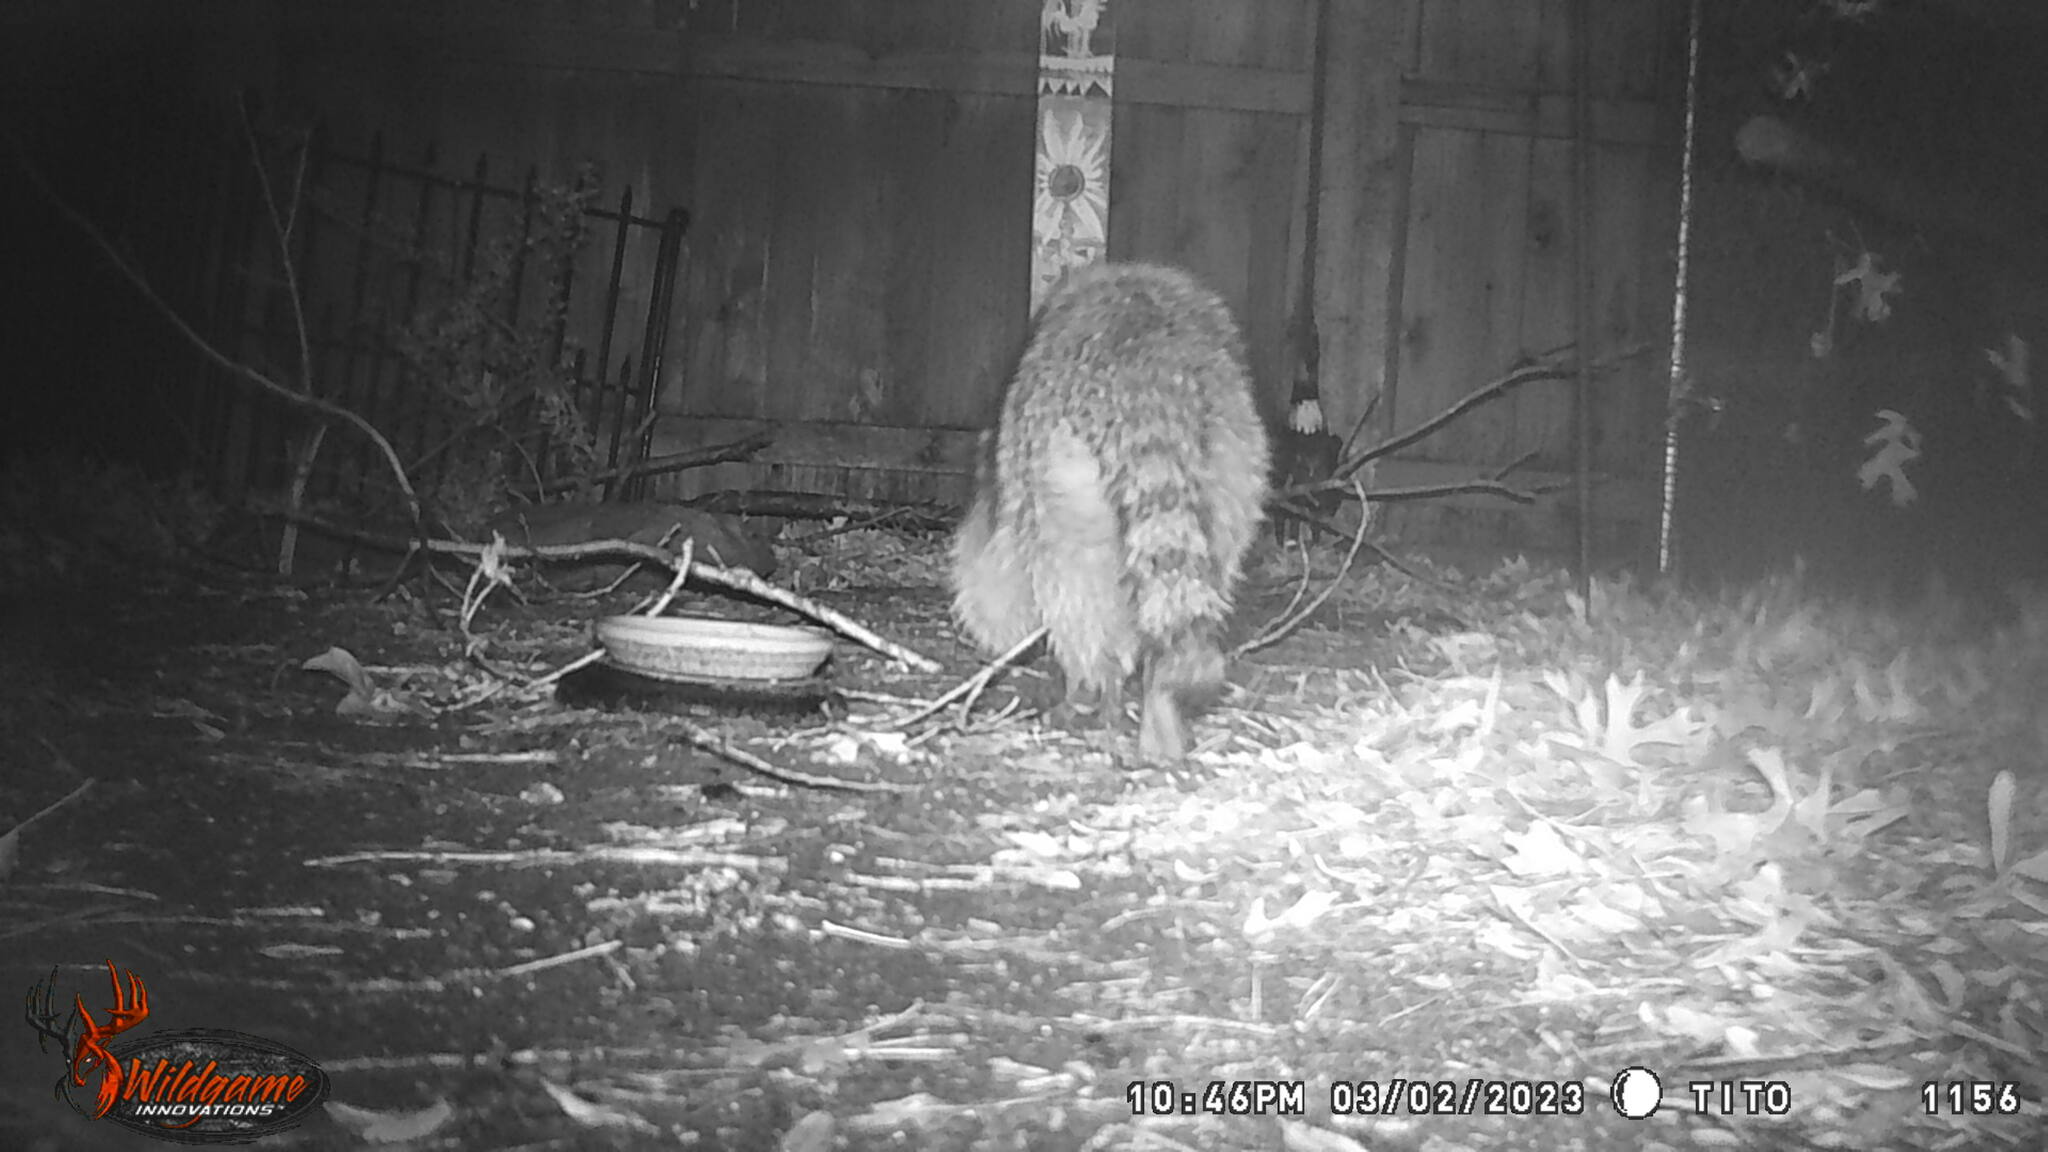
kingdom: Animalia
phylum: Chordata
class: Mammalia
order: Carnivora
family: Procyonidae
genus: Procyon
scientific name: Procyon lotor
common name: Raccoon
